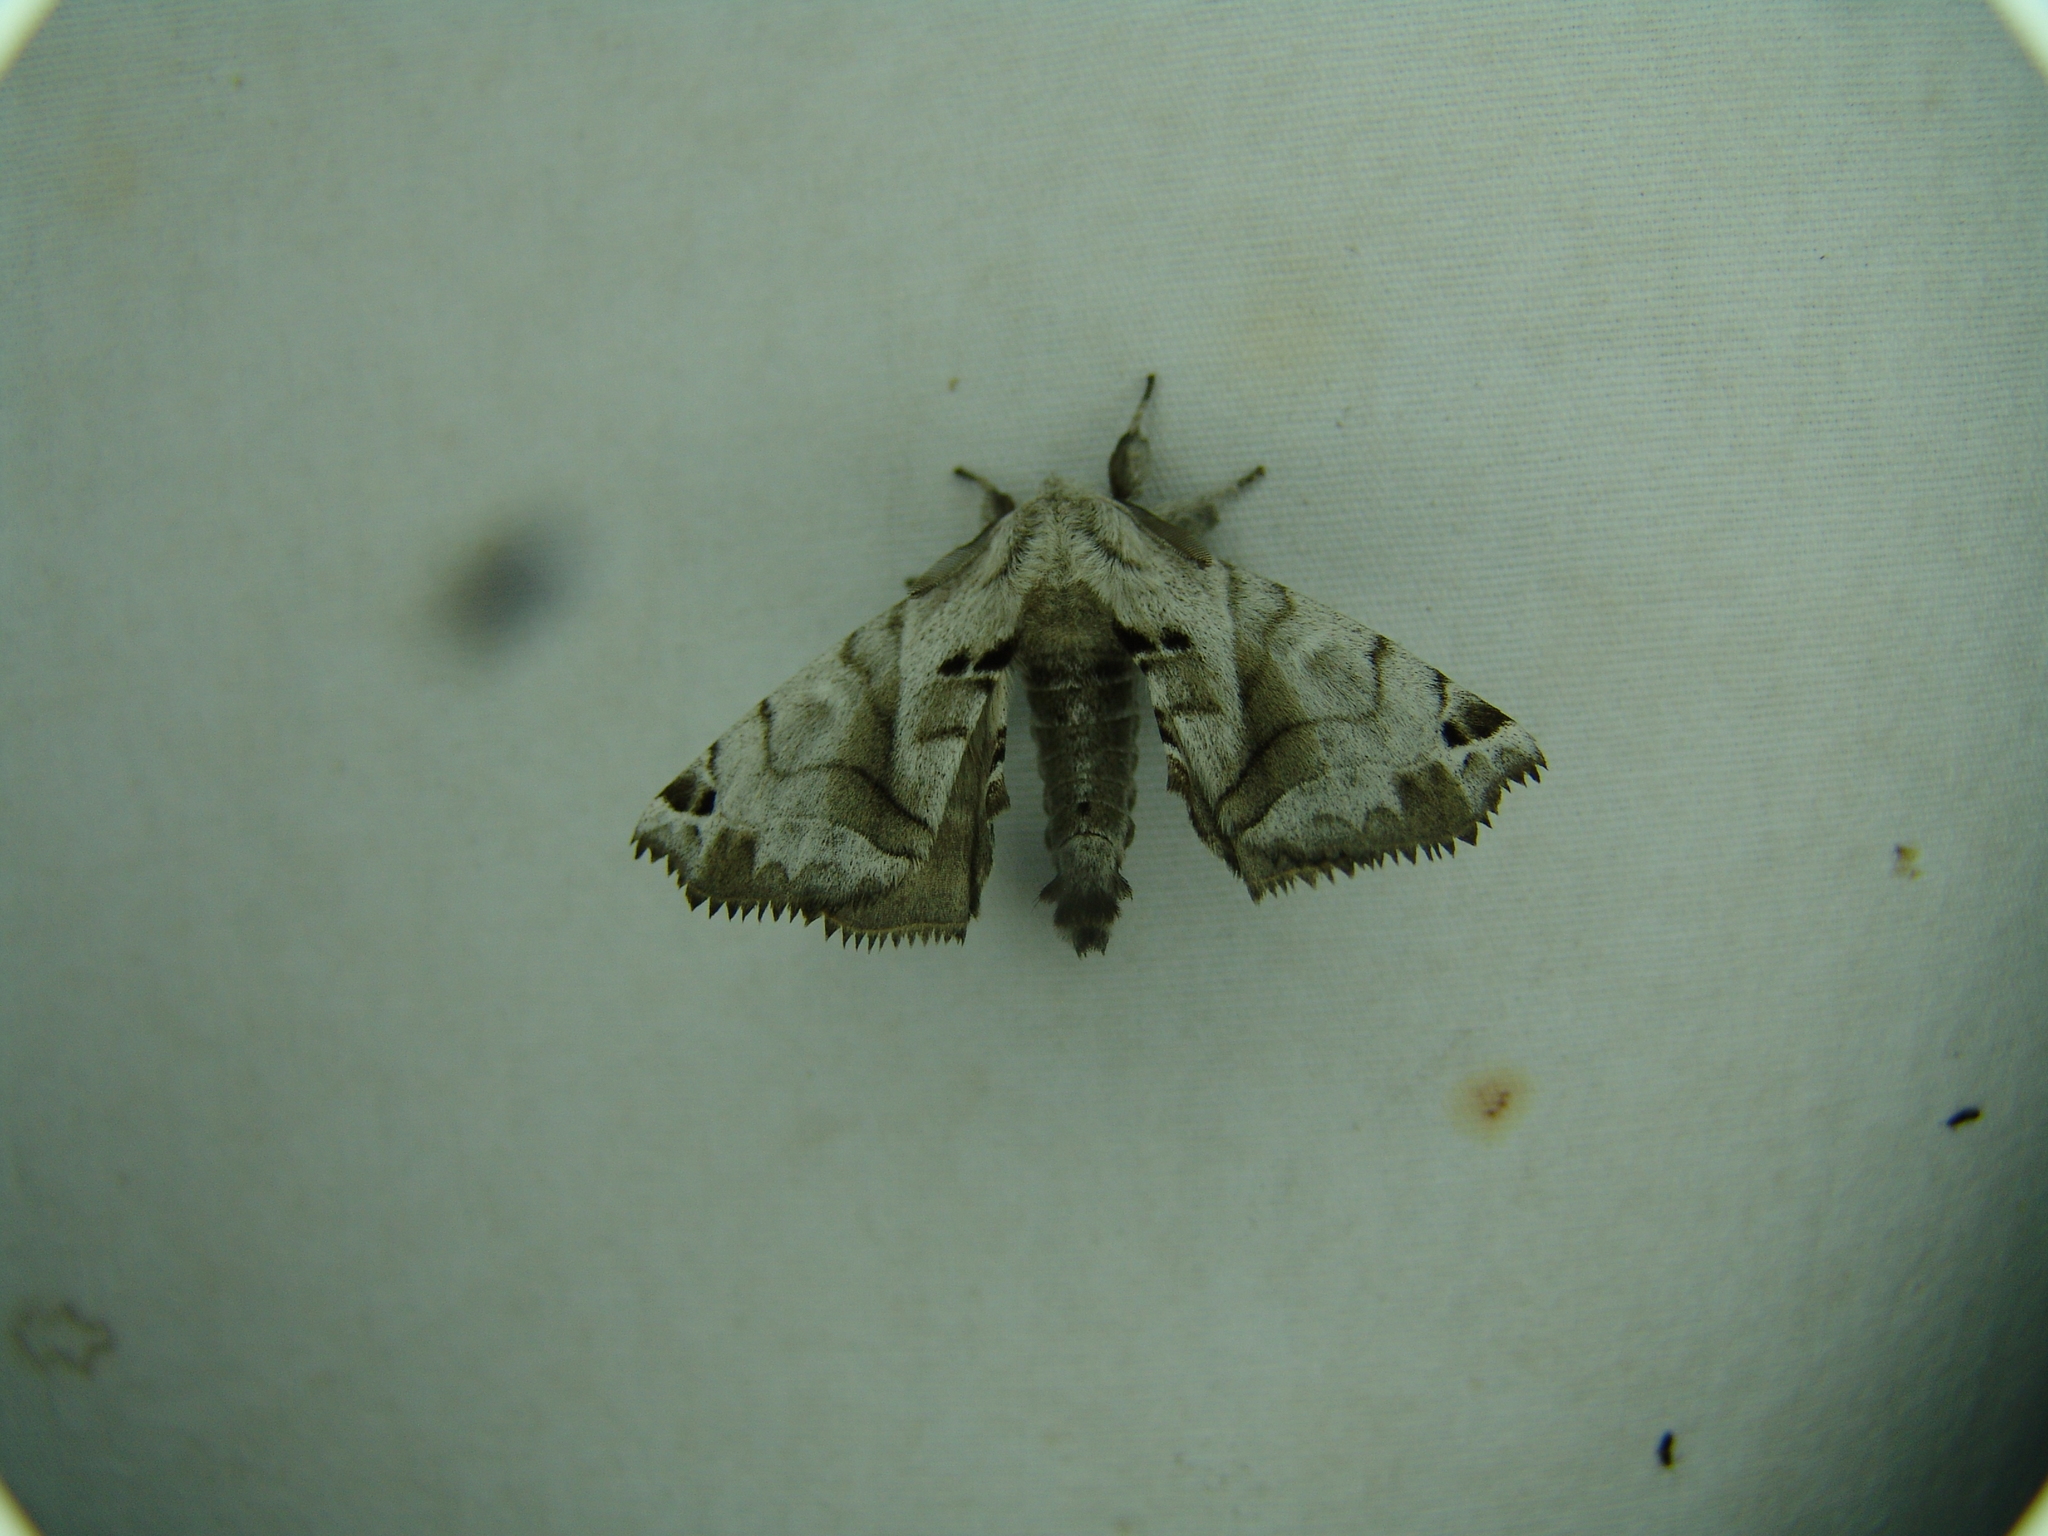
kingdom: Animalia
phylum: Arthropoda
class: Insecta
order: Lepidoptera
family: Apatelodidae
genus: Hygrochroa
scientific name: Hygrochroa Apatelodes pudefacta
